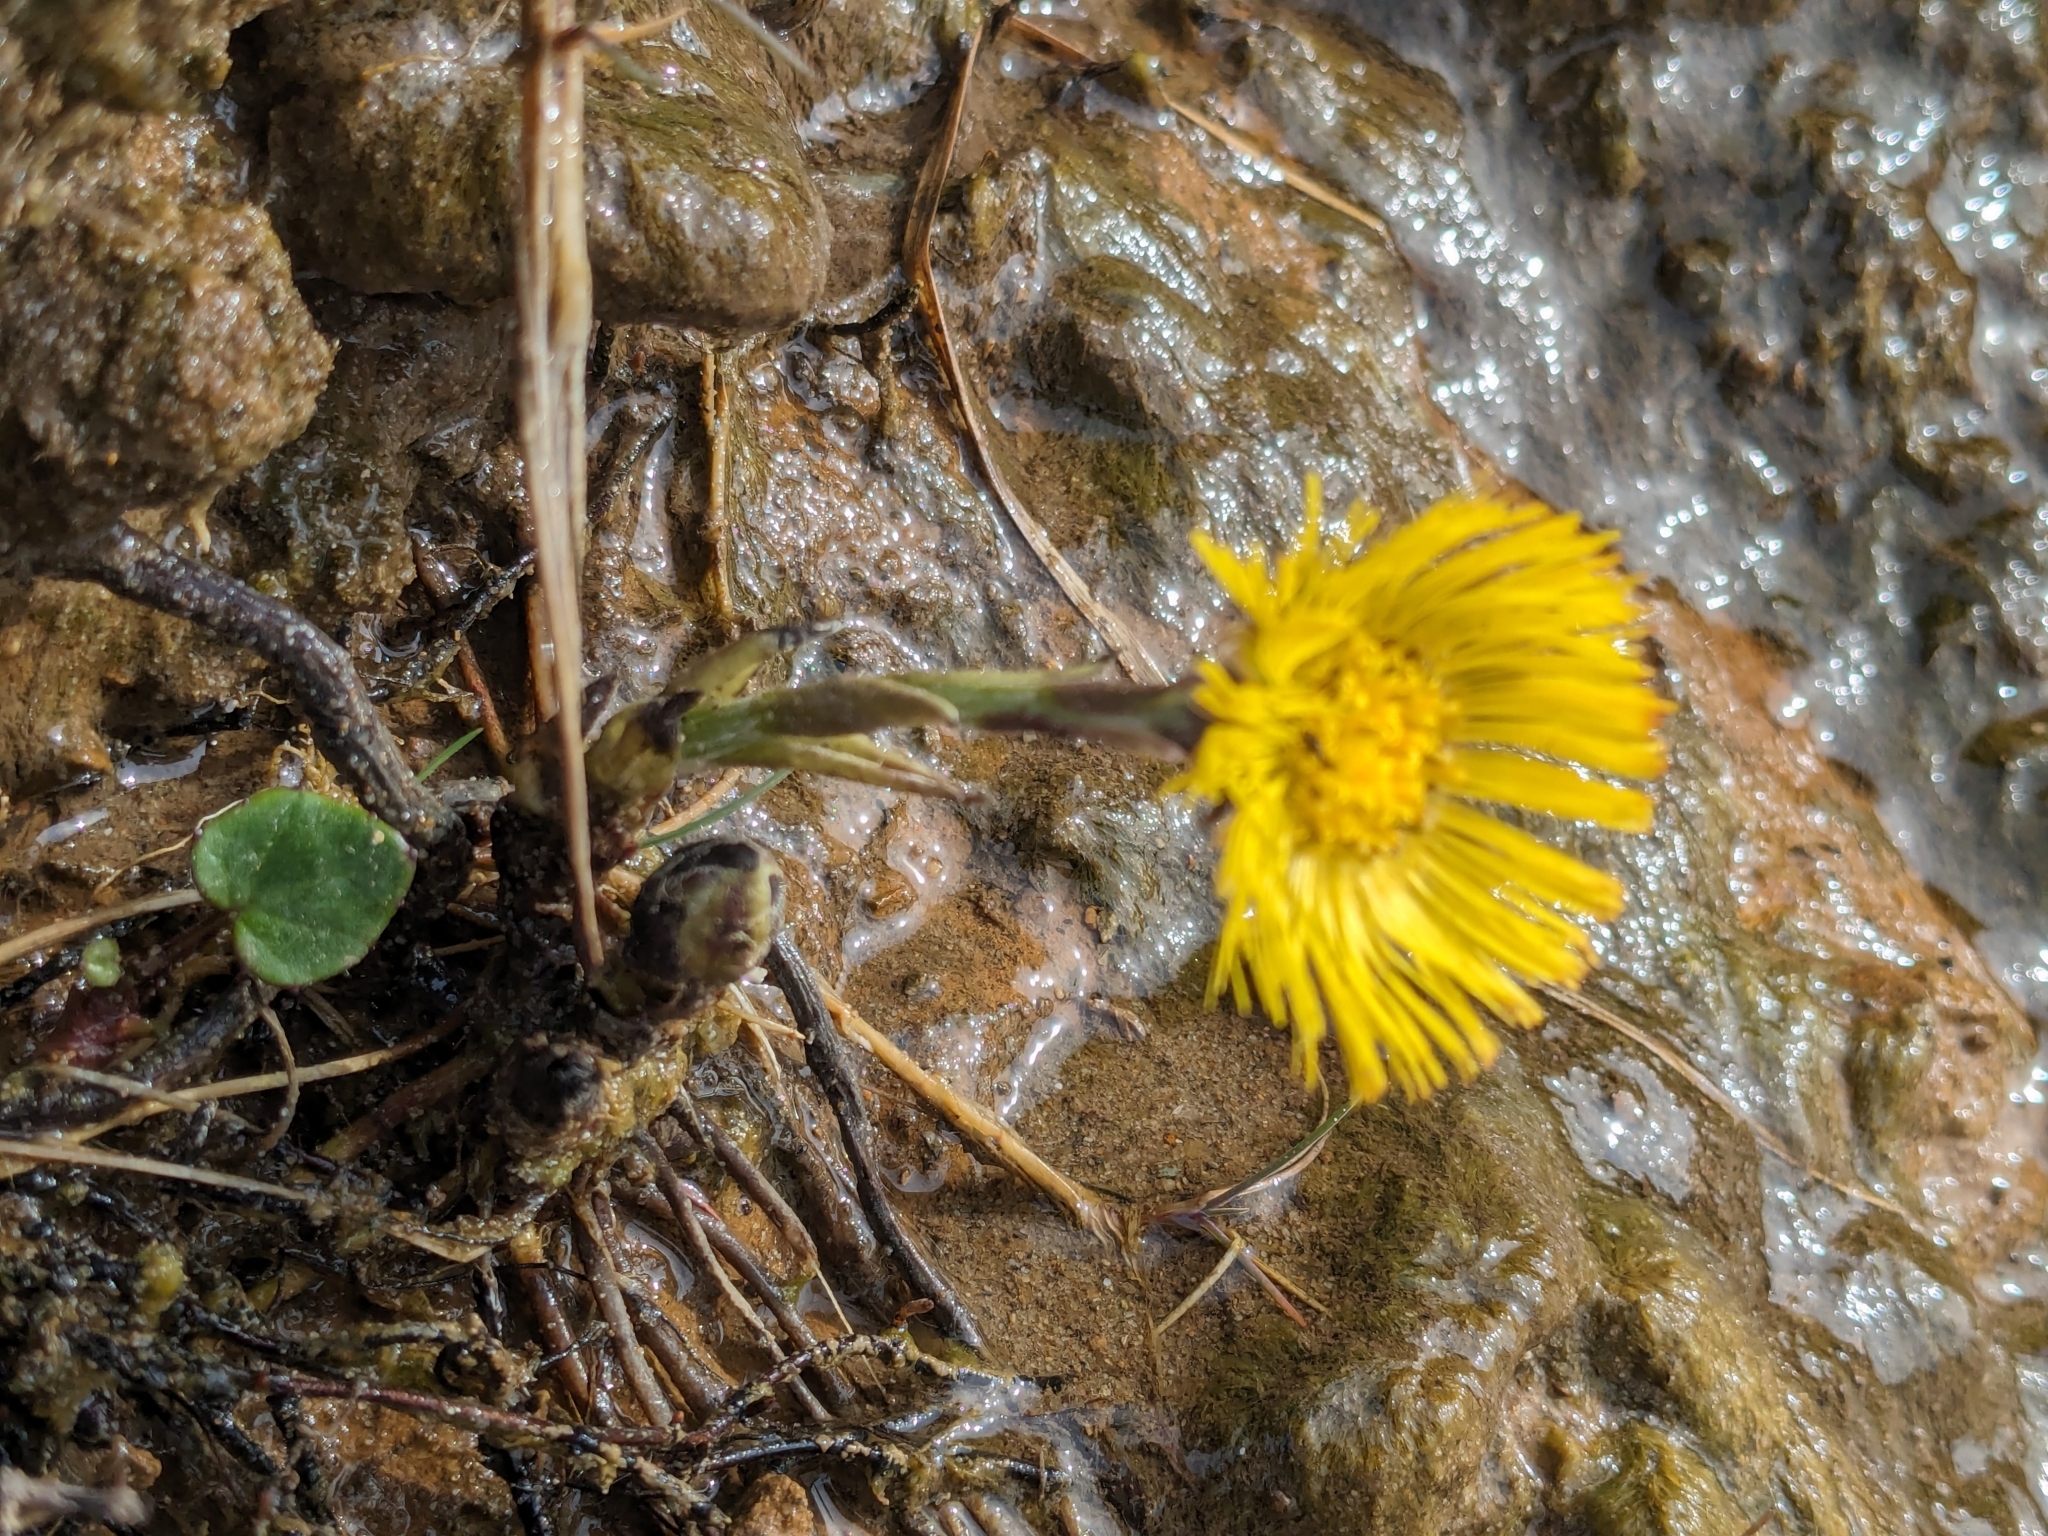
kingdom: Plantae
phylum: Tracheophyta
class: Magnoliopsida
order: Asterales
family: Asteraceae
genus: Tussilago
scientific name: Tussilago farfara
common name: Coltsfoot
